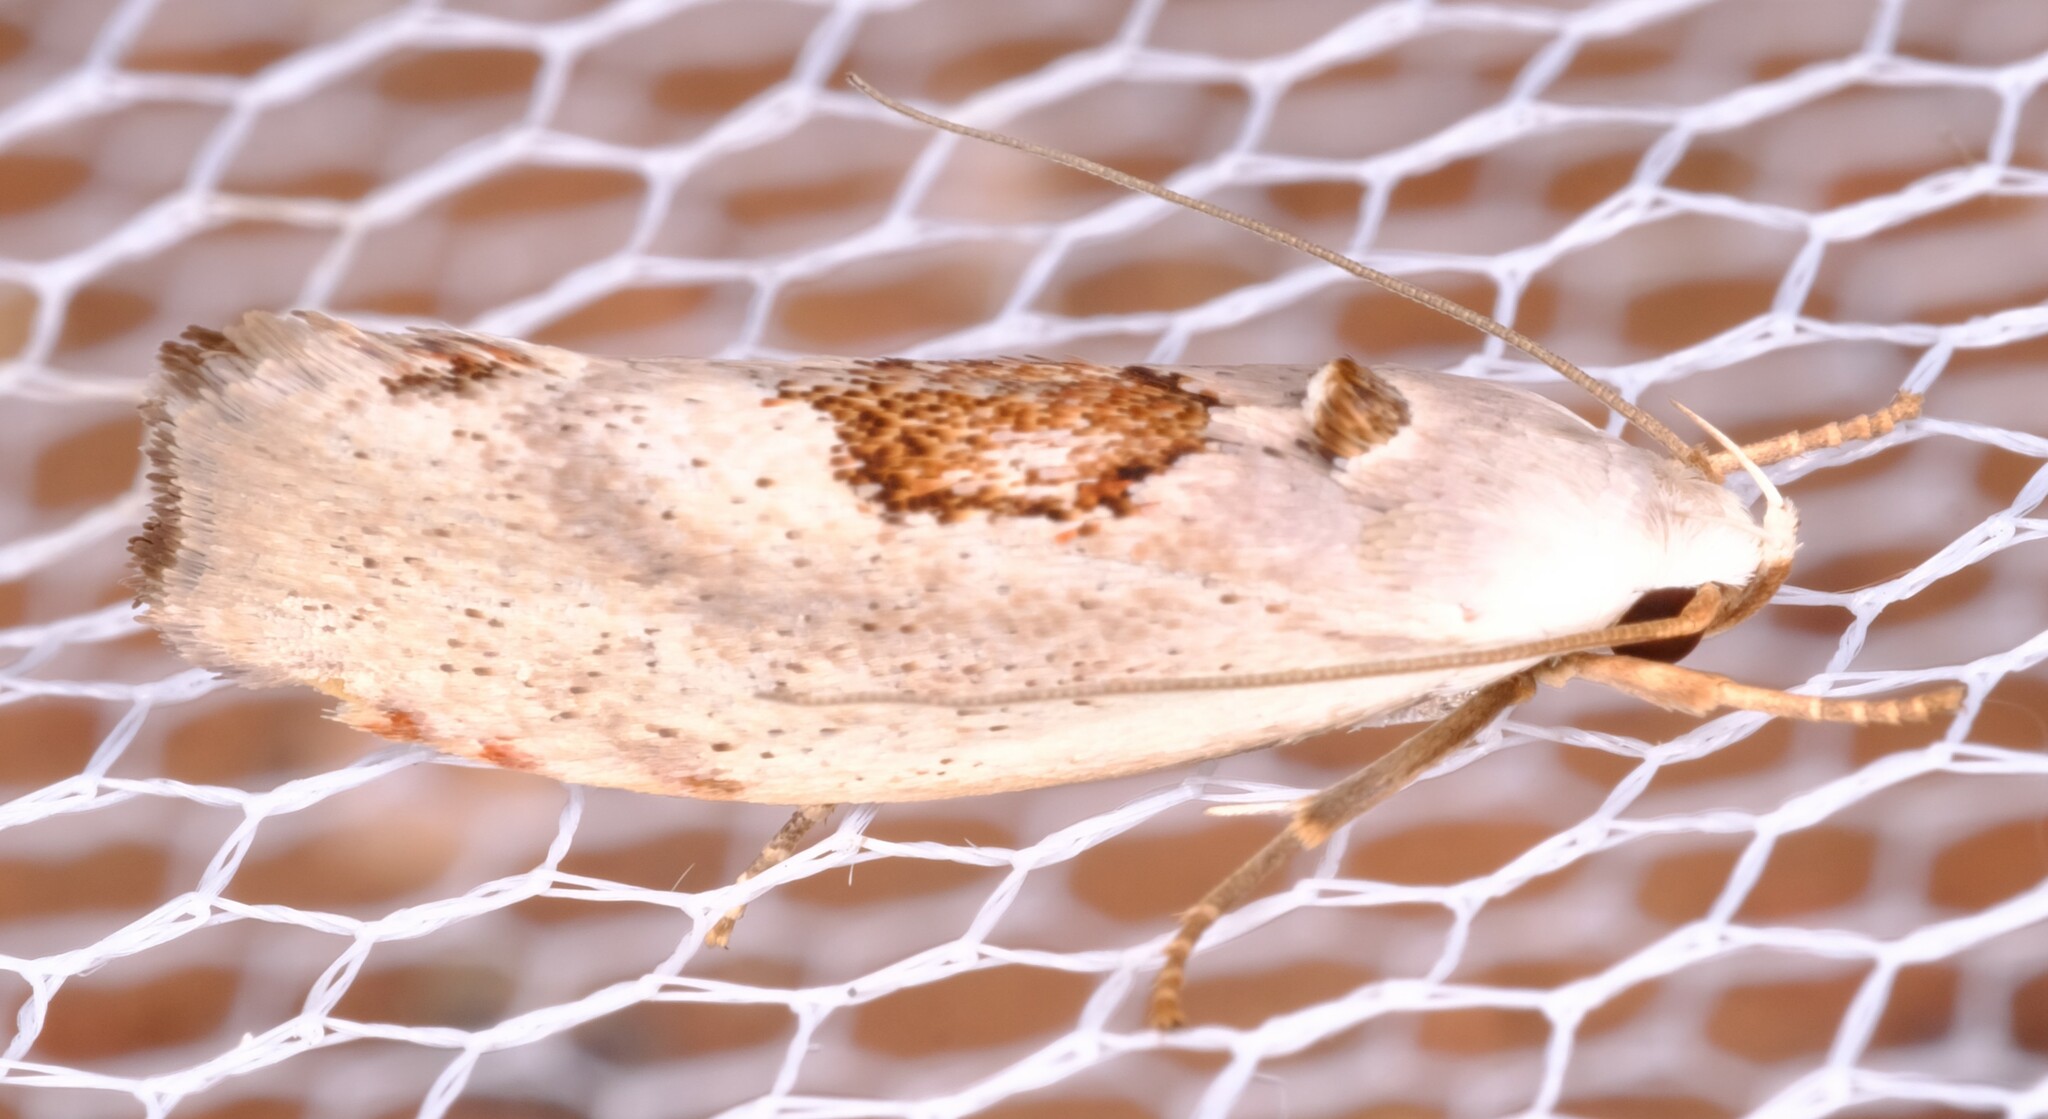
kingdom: Animalia
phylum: Arthropoda
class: Insecta
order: Lepidoptera
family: Xyloryctidae
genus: Tymbophora
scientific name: Tymbophora peltastis
